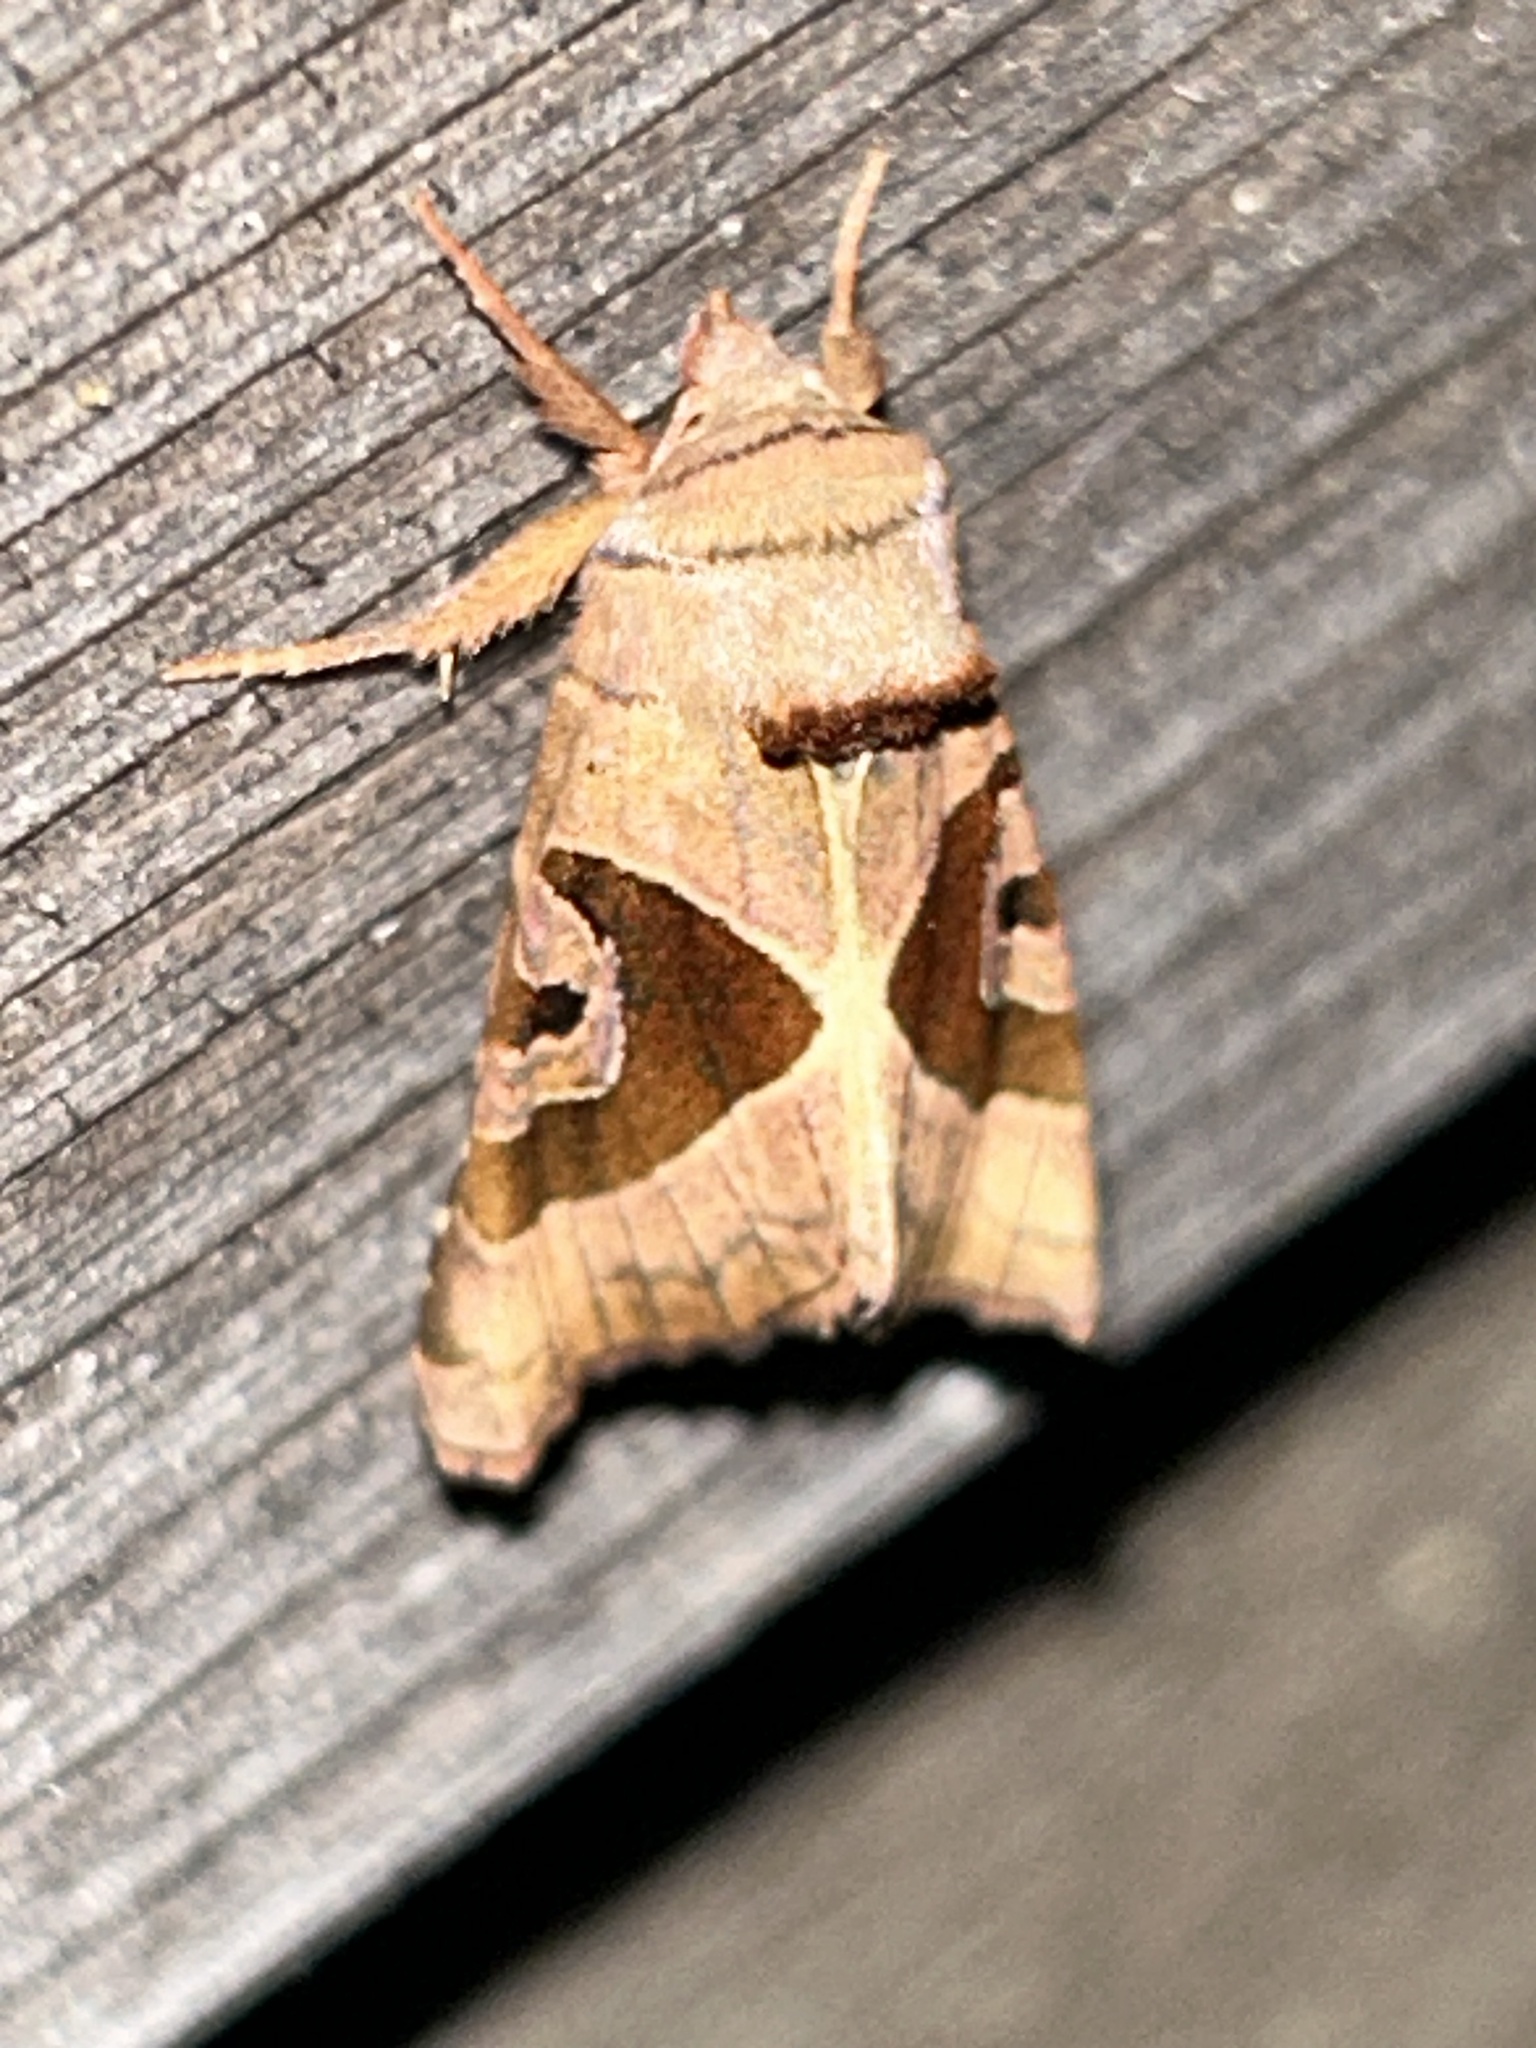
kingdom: Animalia
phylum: Arthropoda
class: Insecta
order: Lepidoptera
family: Noctuidae
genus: Conservula
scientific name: Conservula anodonta
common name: Sharp angle shades
